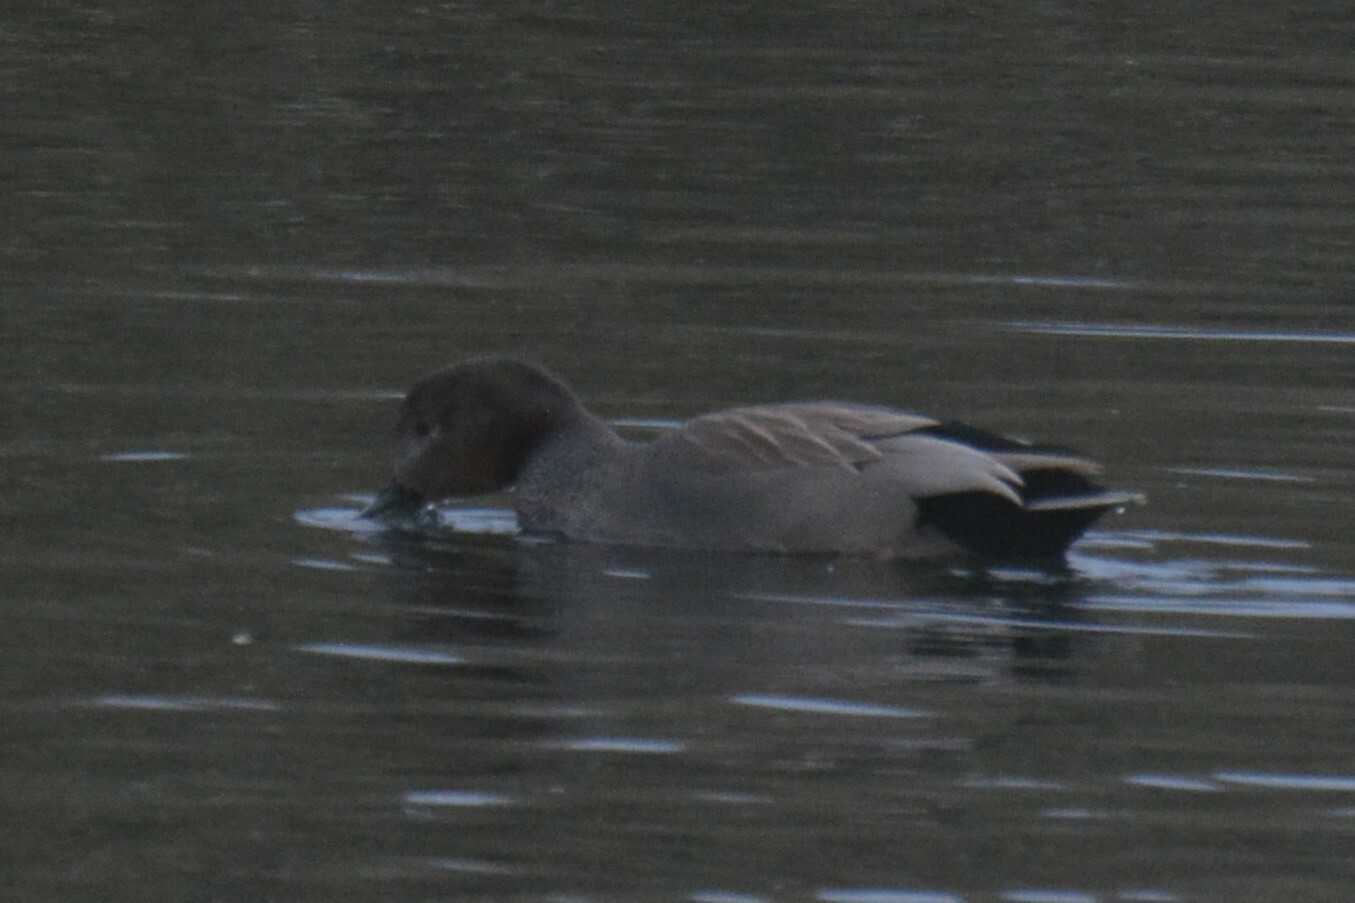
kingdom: Animalia
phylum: Chordata
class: Aves
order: Anseriformes
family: Anatidae
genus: Mareca
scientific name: Mareca strepera
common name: Gadwall
